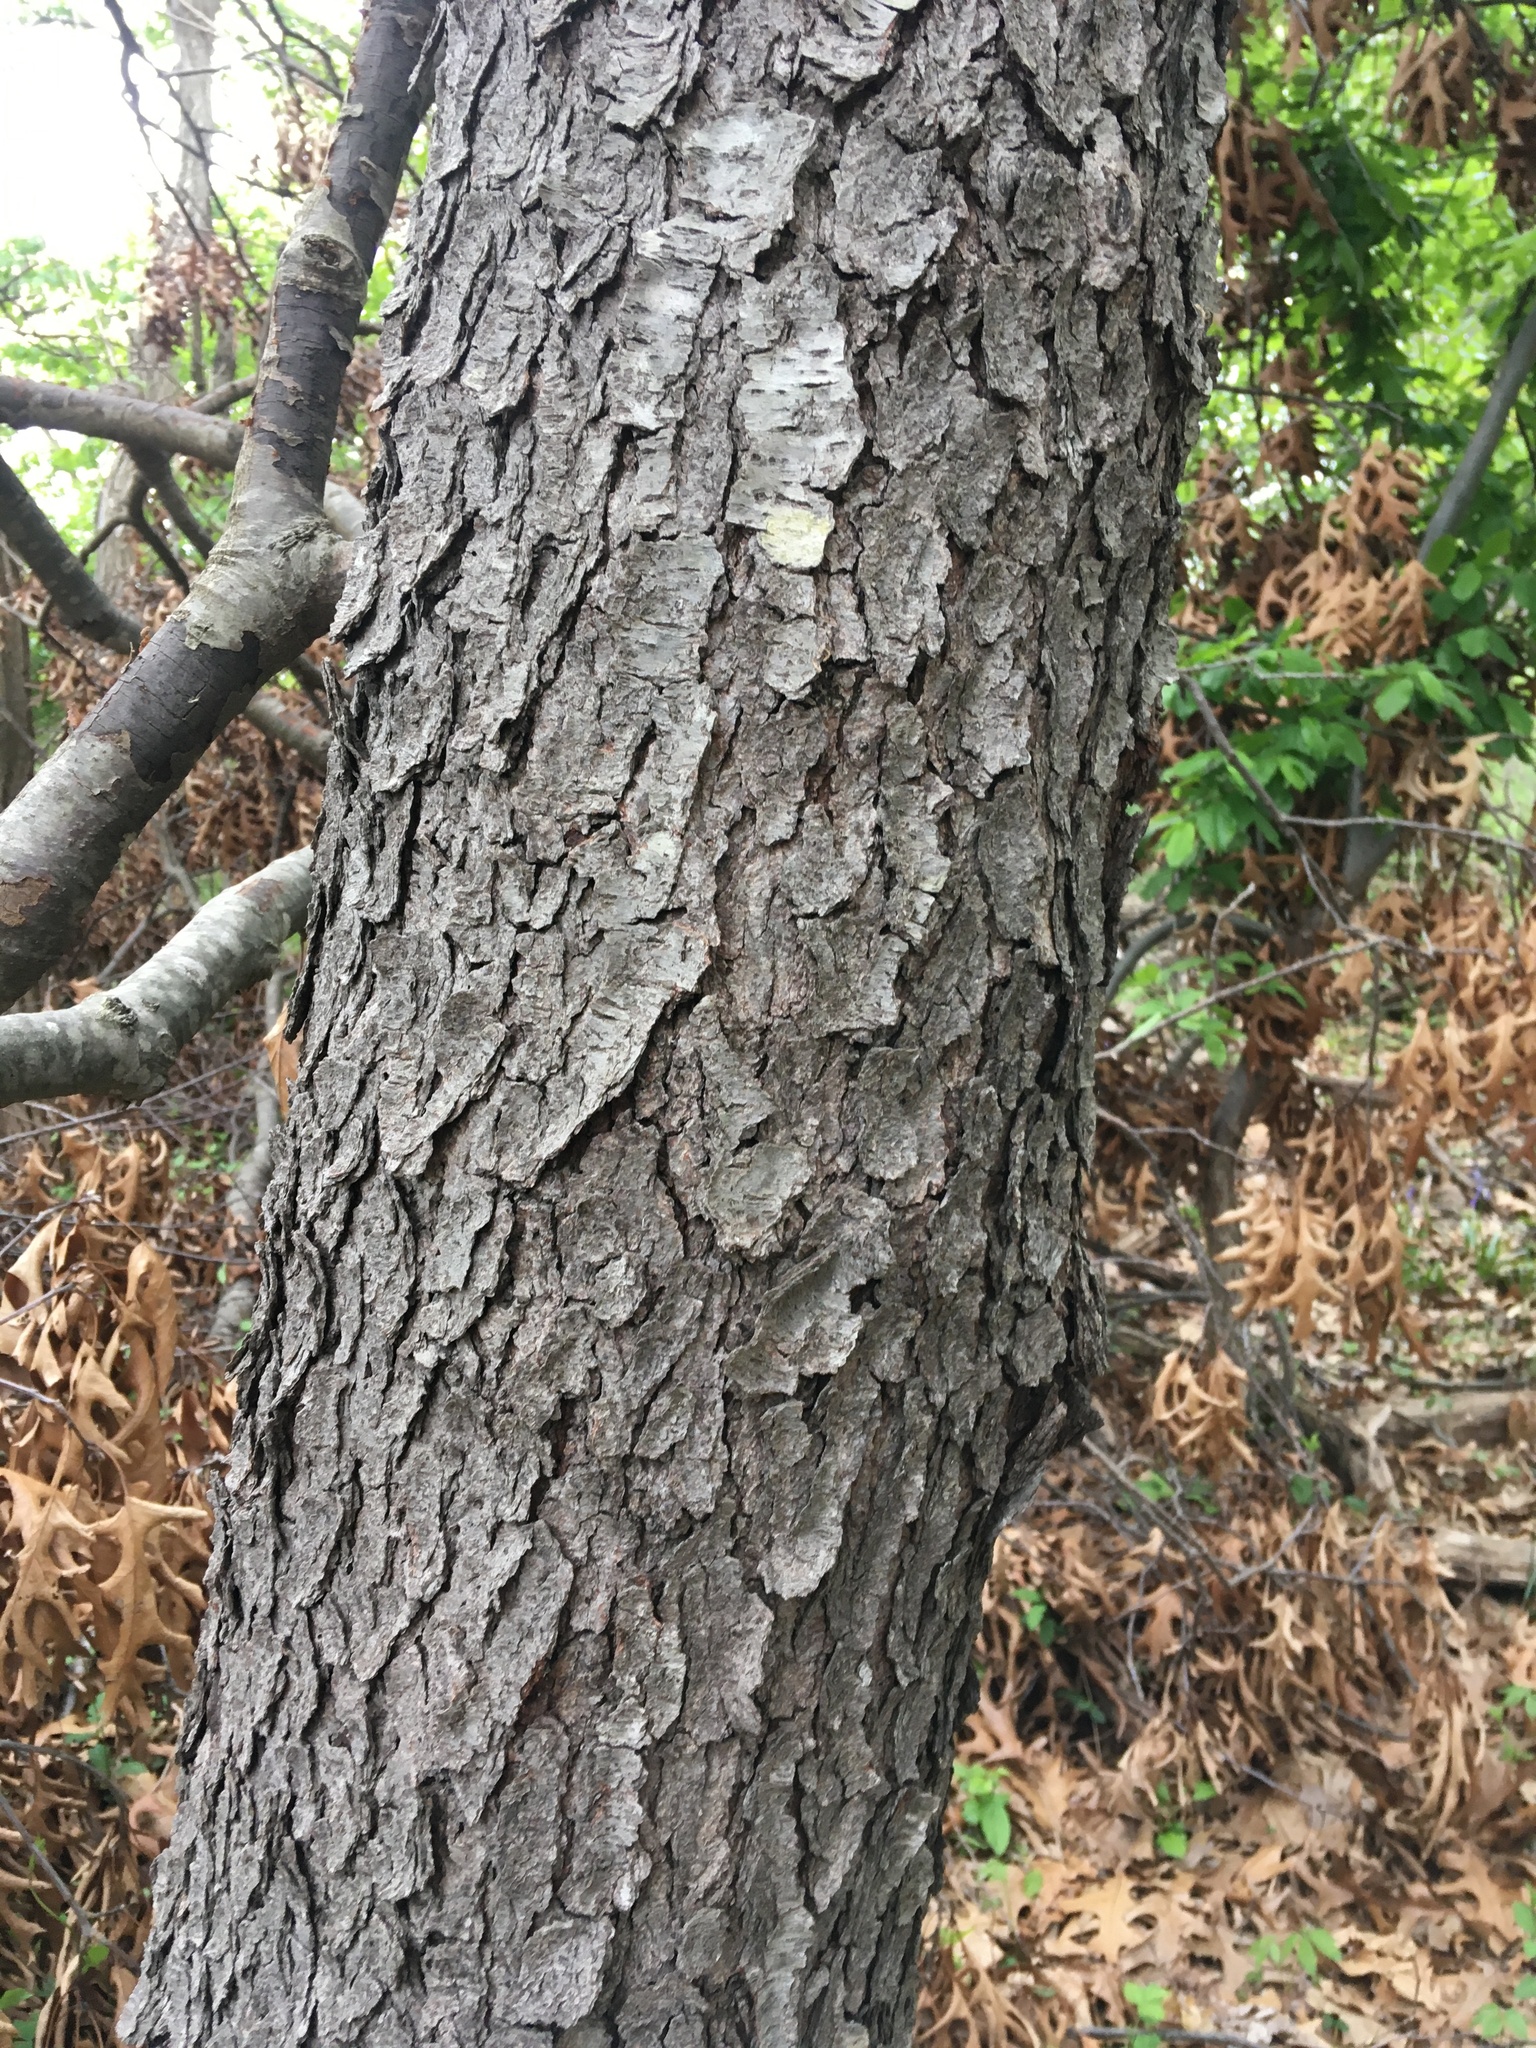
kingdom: Plantae
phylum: Tracheophyta
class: Magnoliopsida
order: Rosales
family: Rosaceae
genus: Prunus
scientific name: Prunus serotina
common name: Black cherry
